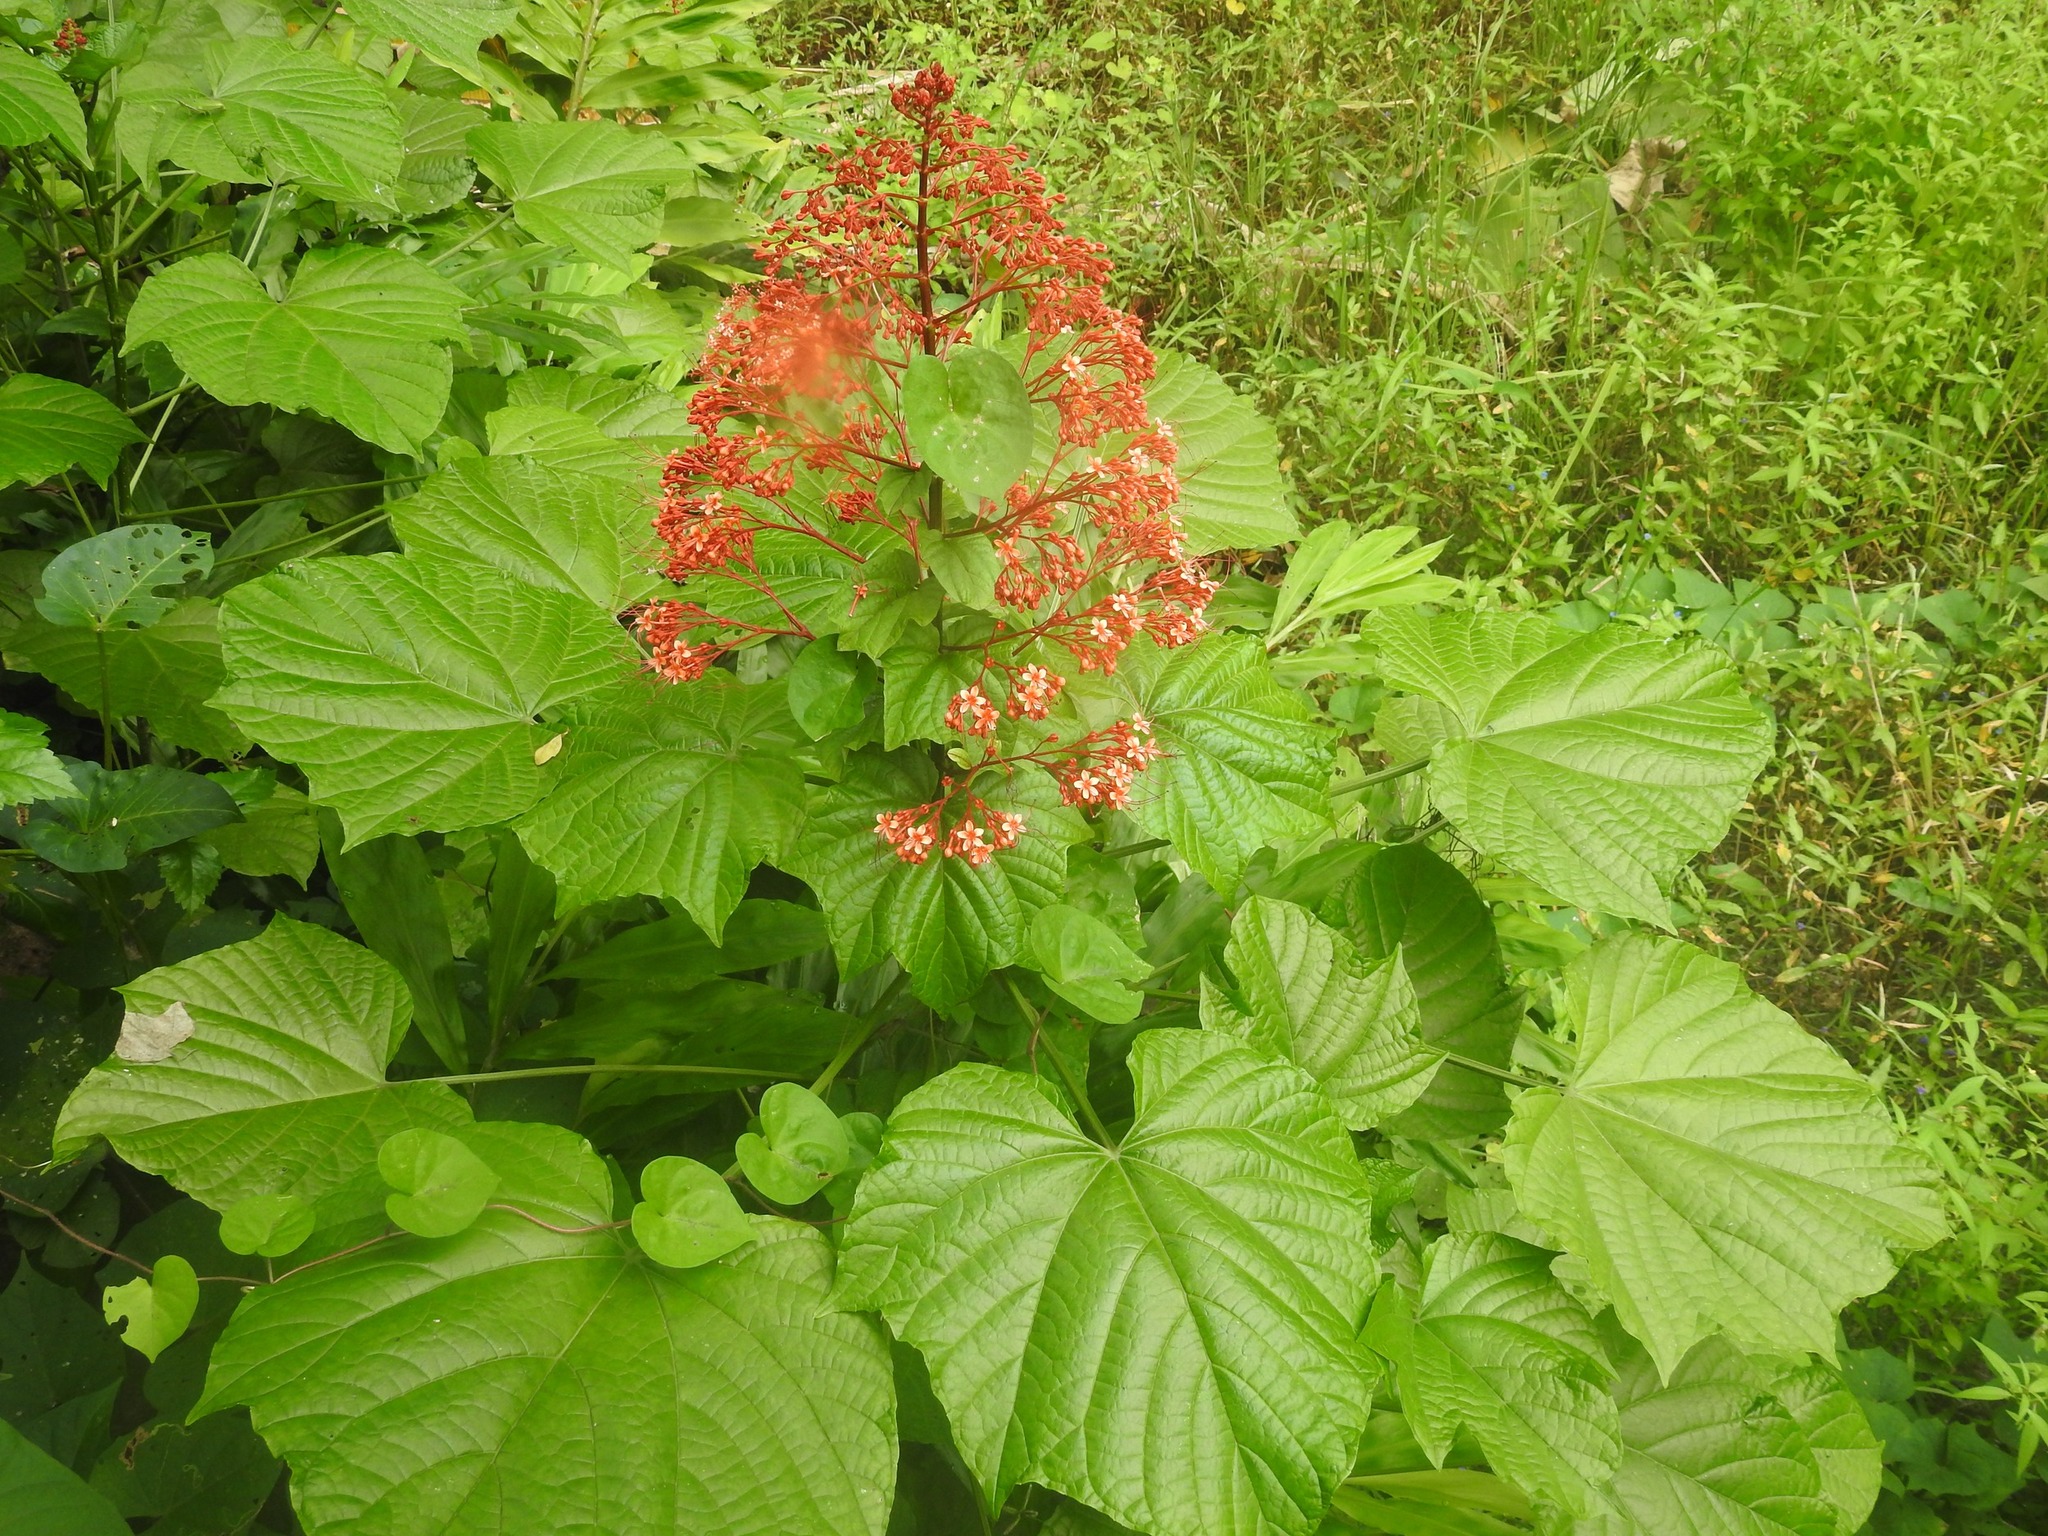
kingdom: Plantae
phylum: Tracheophyta
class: Magnoliopsida
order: Lamiales
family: Lamiaceae
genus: Clerodendrum
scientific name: Clerodendrum paniculatum
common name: Pagoda-flower
